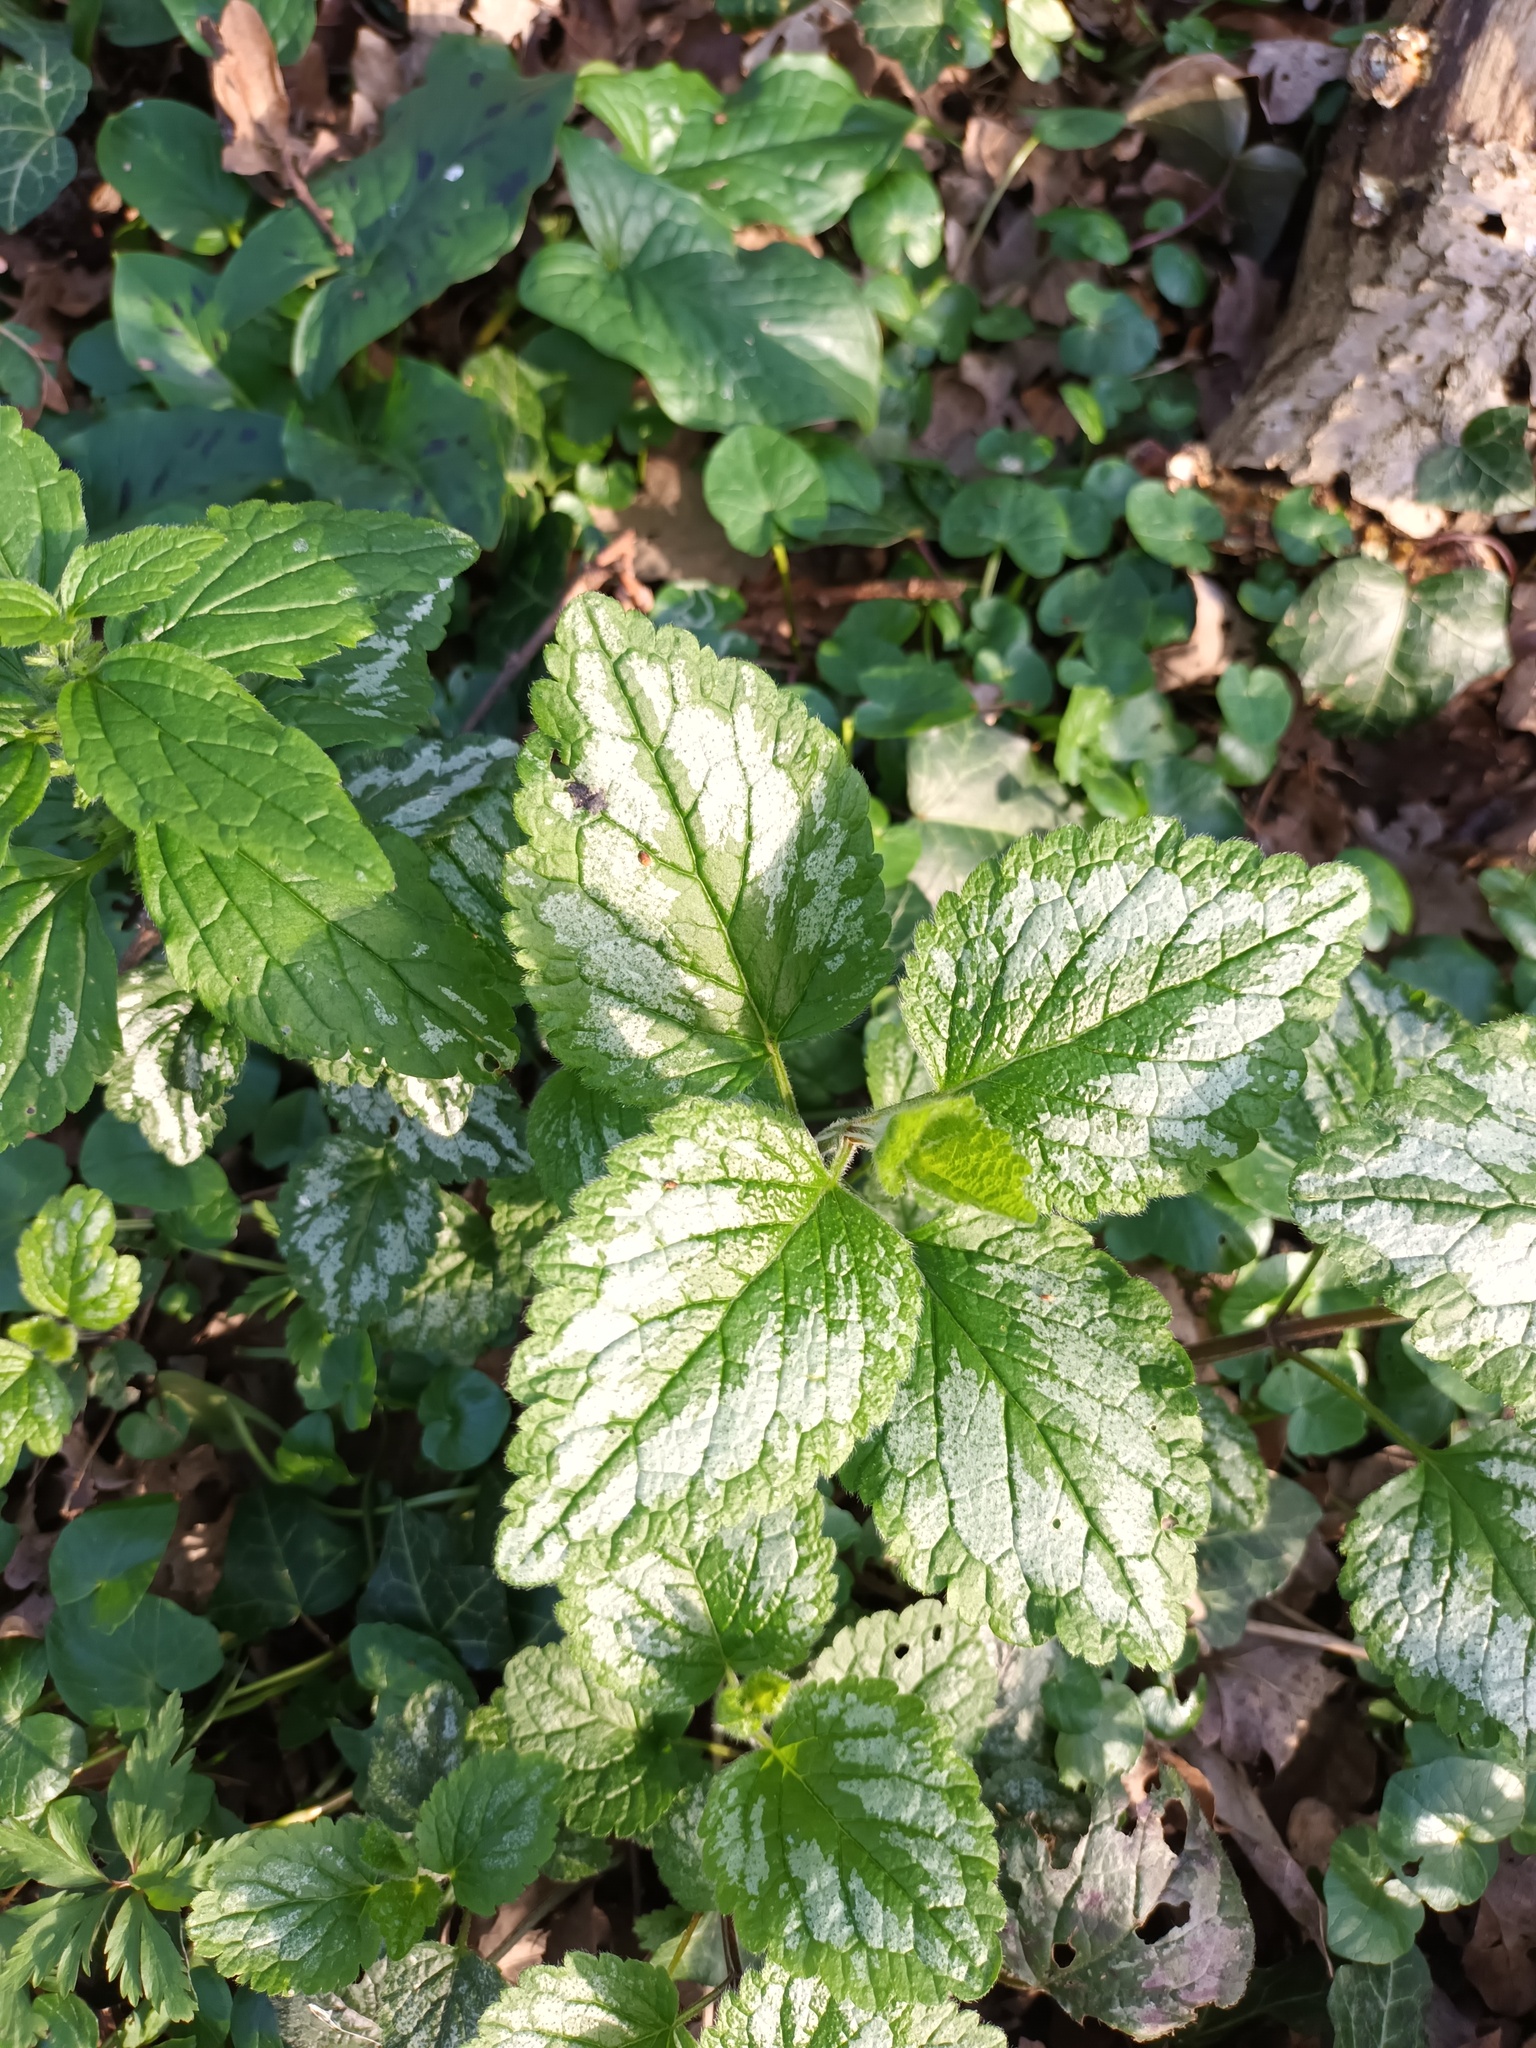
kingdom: Plantae
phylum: Tracheophyta
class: Magnoliopsida
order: Lamiales
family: Lamiaceae
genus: Lamium
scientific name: Lamium galeobdolon
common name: Yellow archangel
